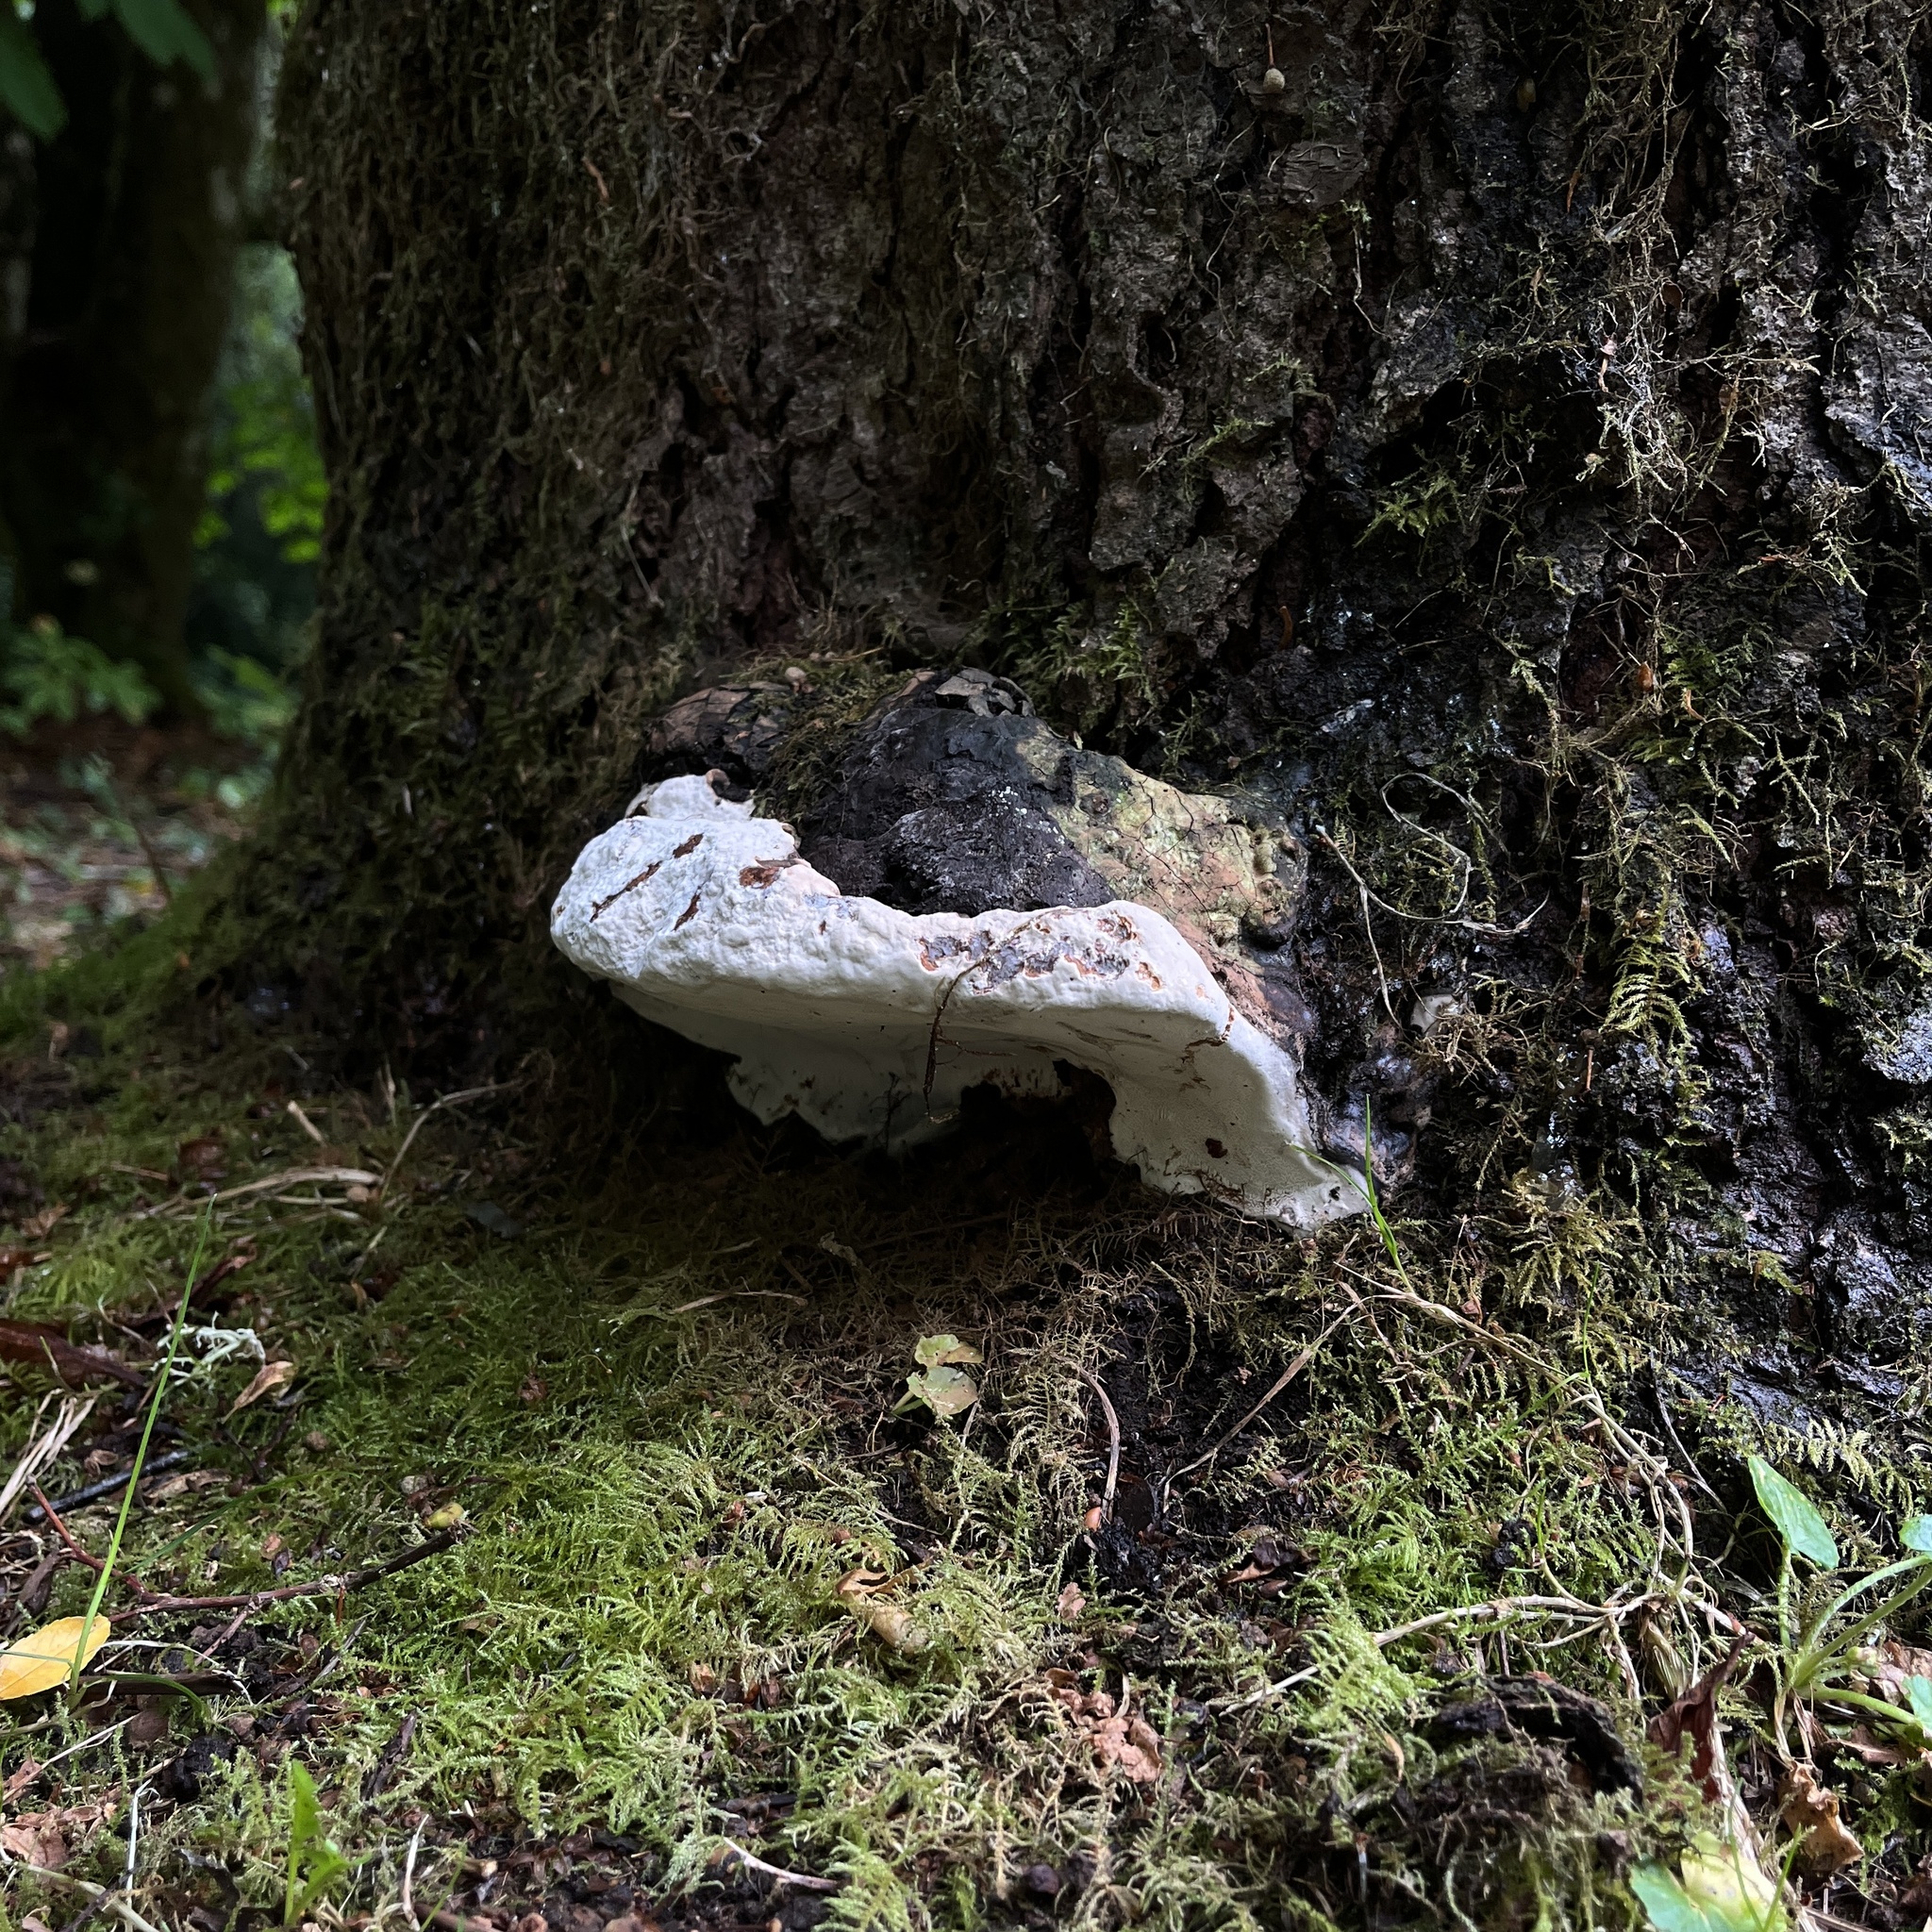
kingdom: Fungi
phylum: Basidiomycota
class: Agaricomycetes
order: Polyporales
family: Polyporaceae
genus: Ganoderma
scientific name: Ganoderma australe
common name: Southern bracket
